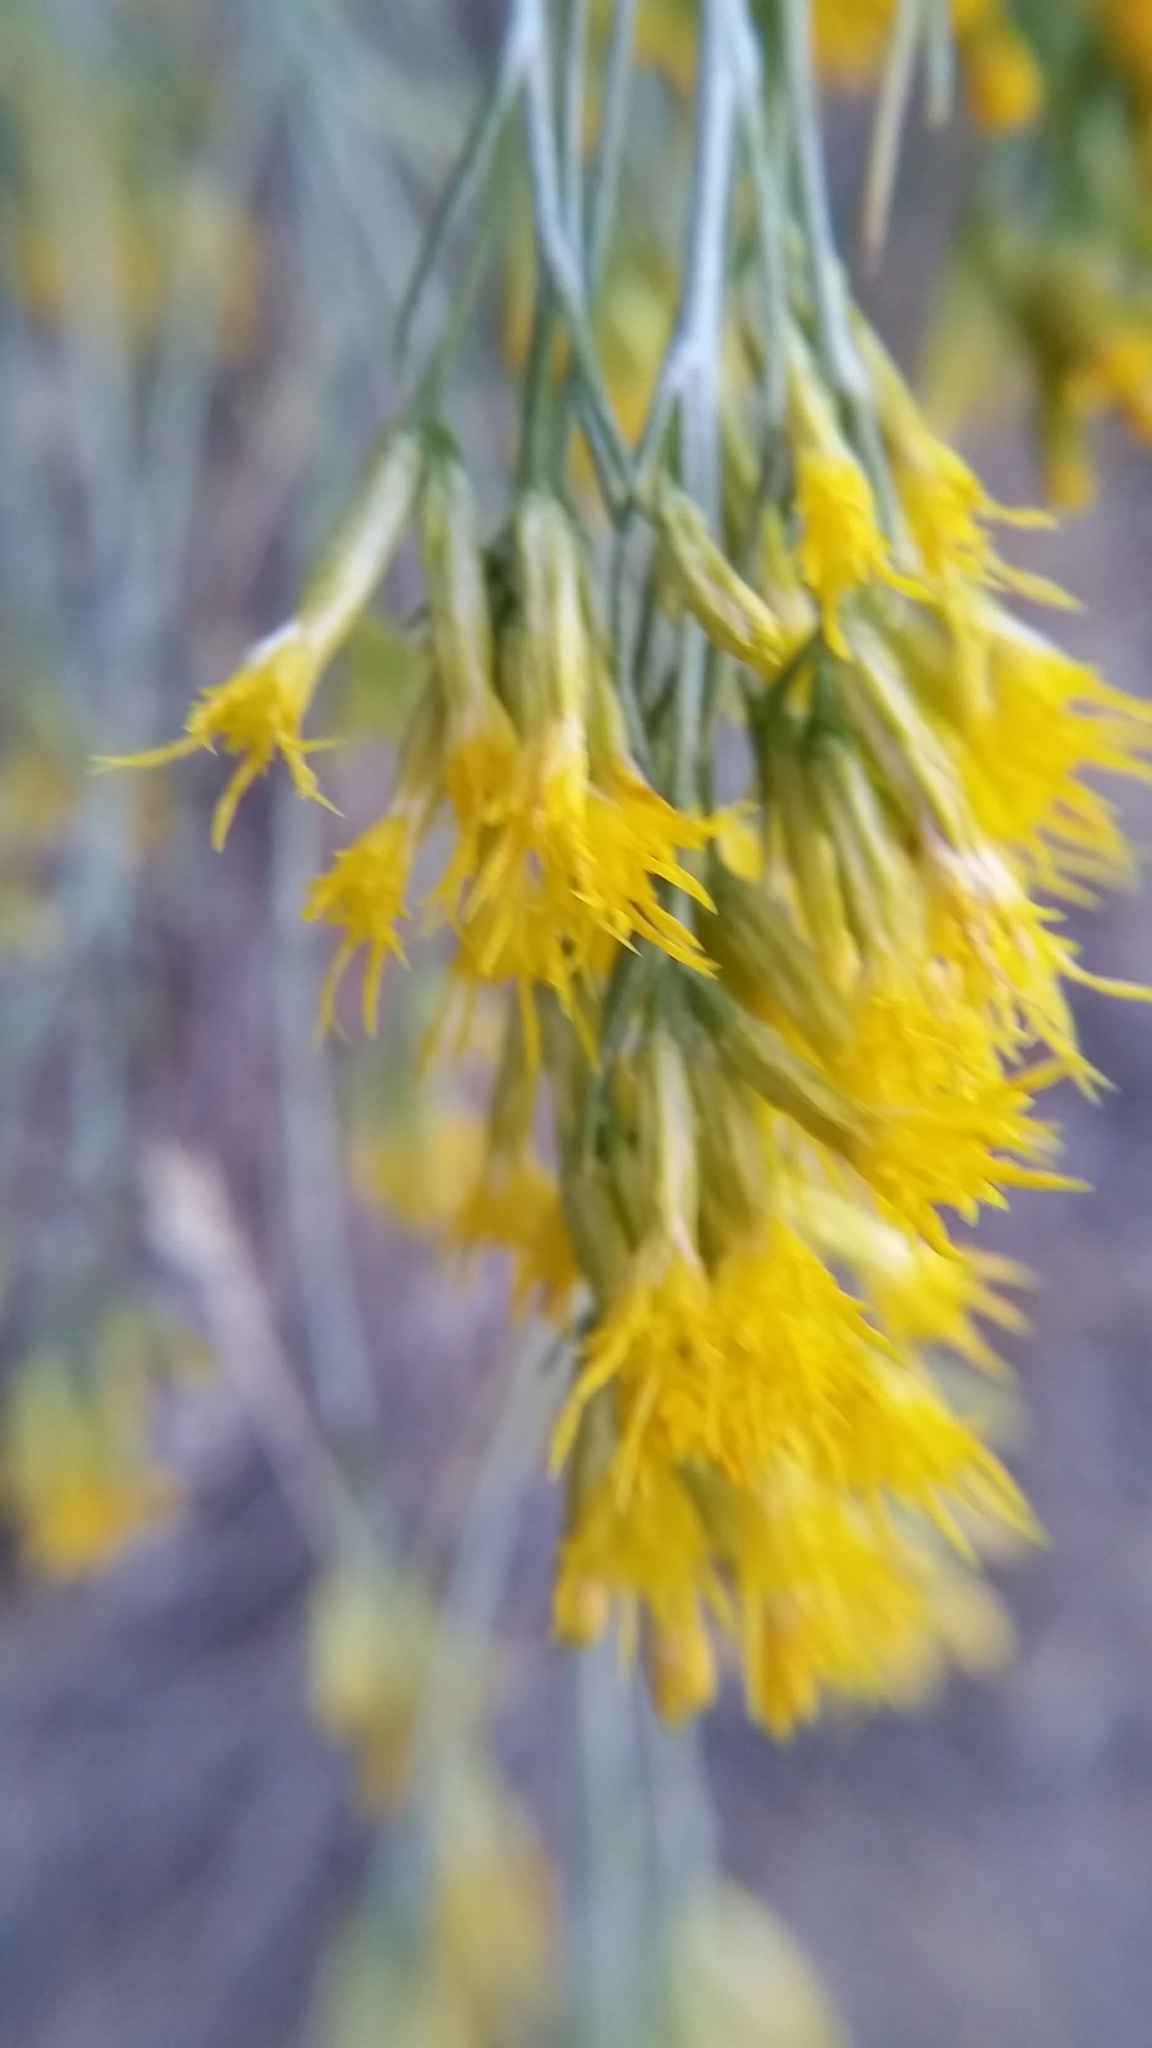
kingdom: Plantae
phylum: Tracheophyta
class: Magnoliopsida
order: Asterales
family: Asteraceae
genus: Ericameria
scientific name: Ericameria nauseosa
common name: Rubber rabbitbrush
